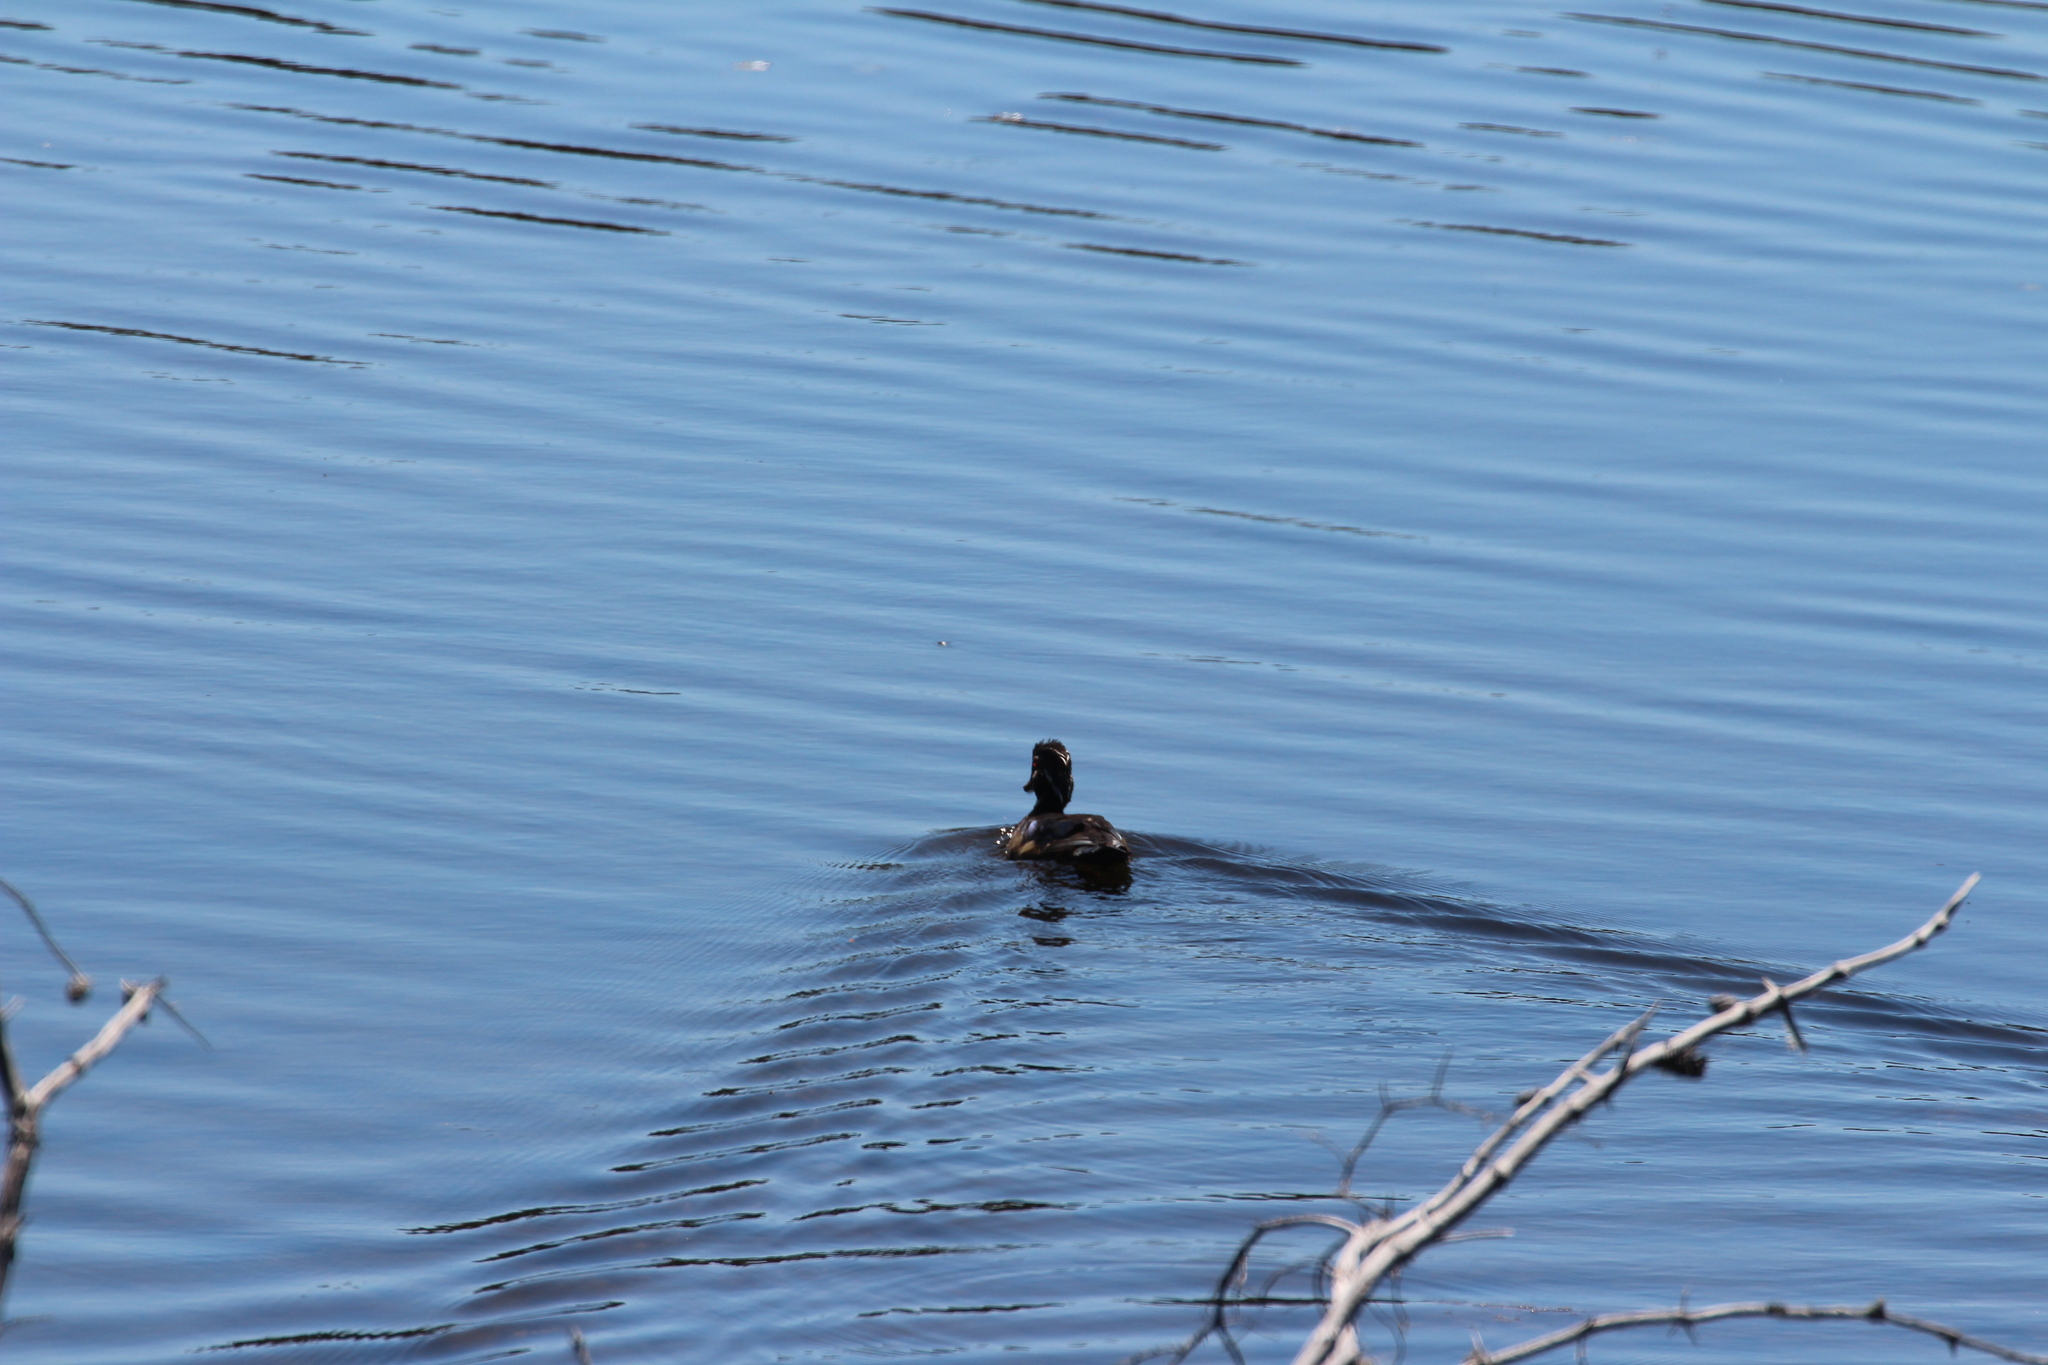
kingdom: Animalia
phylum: Chordata
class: Aves
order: Anseriformes
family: Anatidae
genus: Aix
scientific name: Aix sponsa
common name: Wood duck
